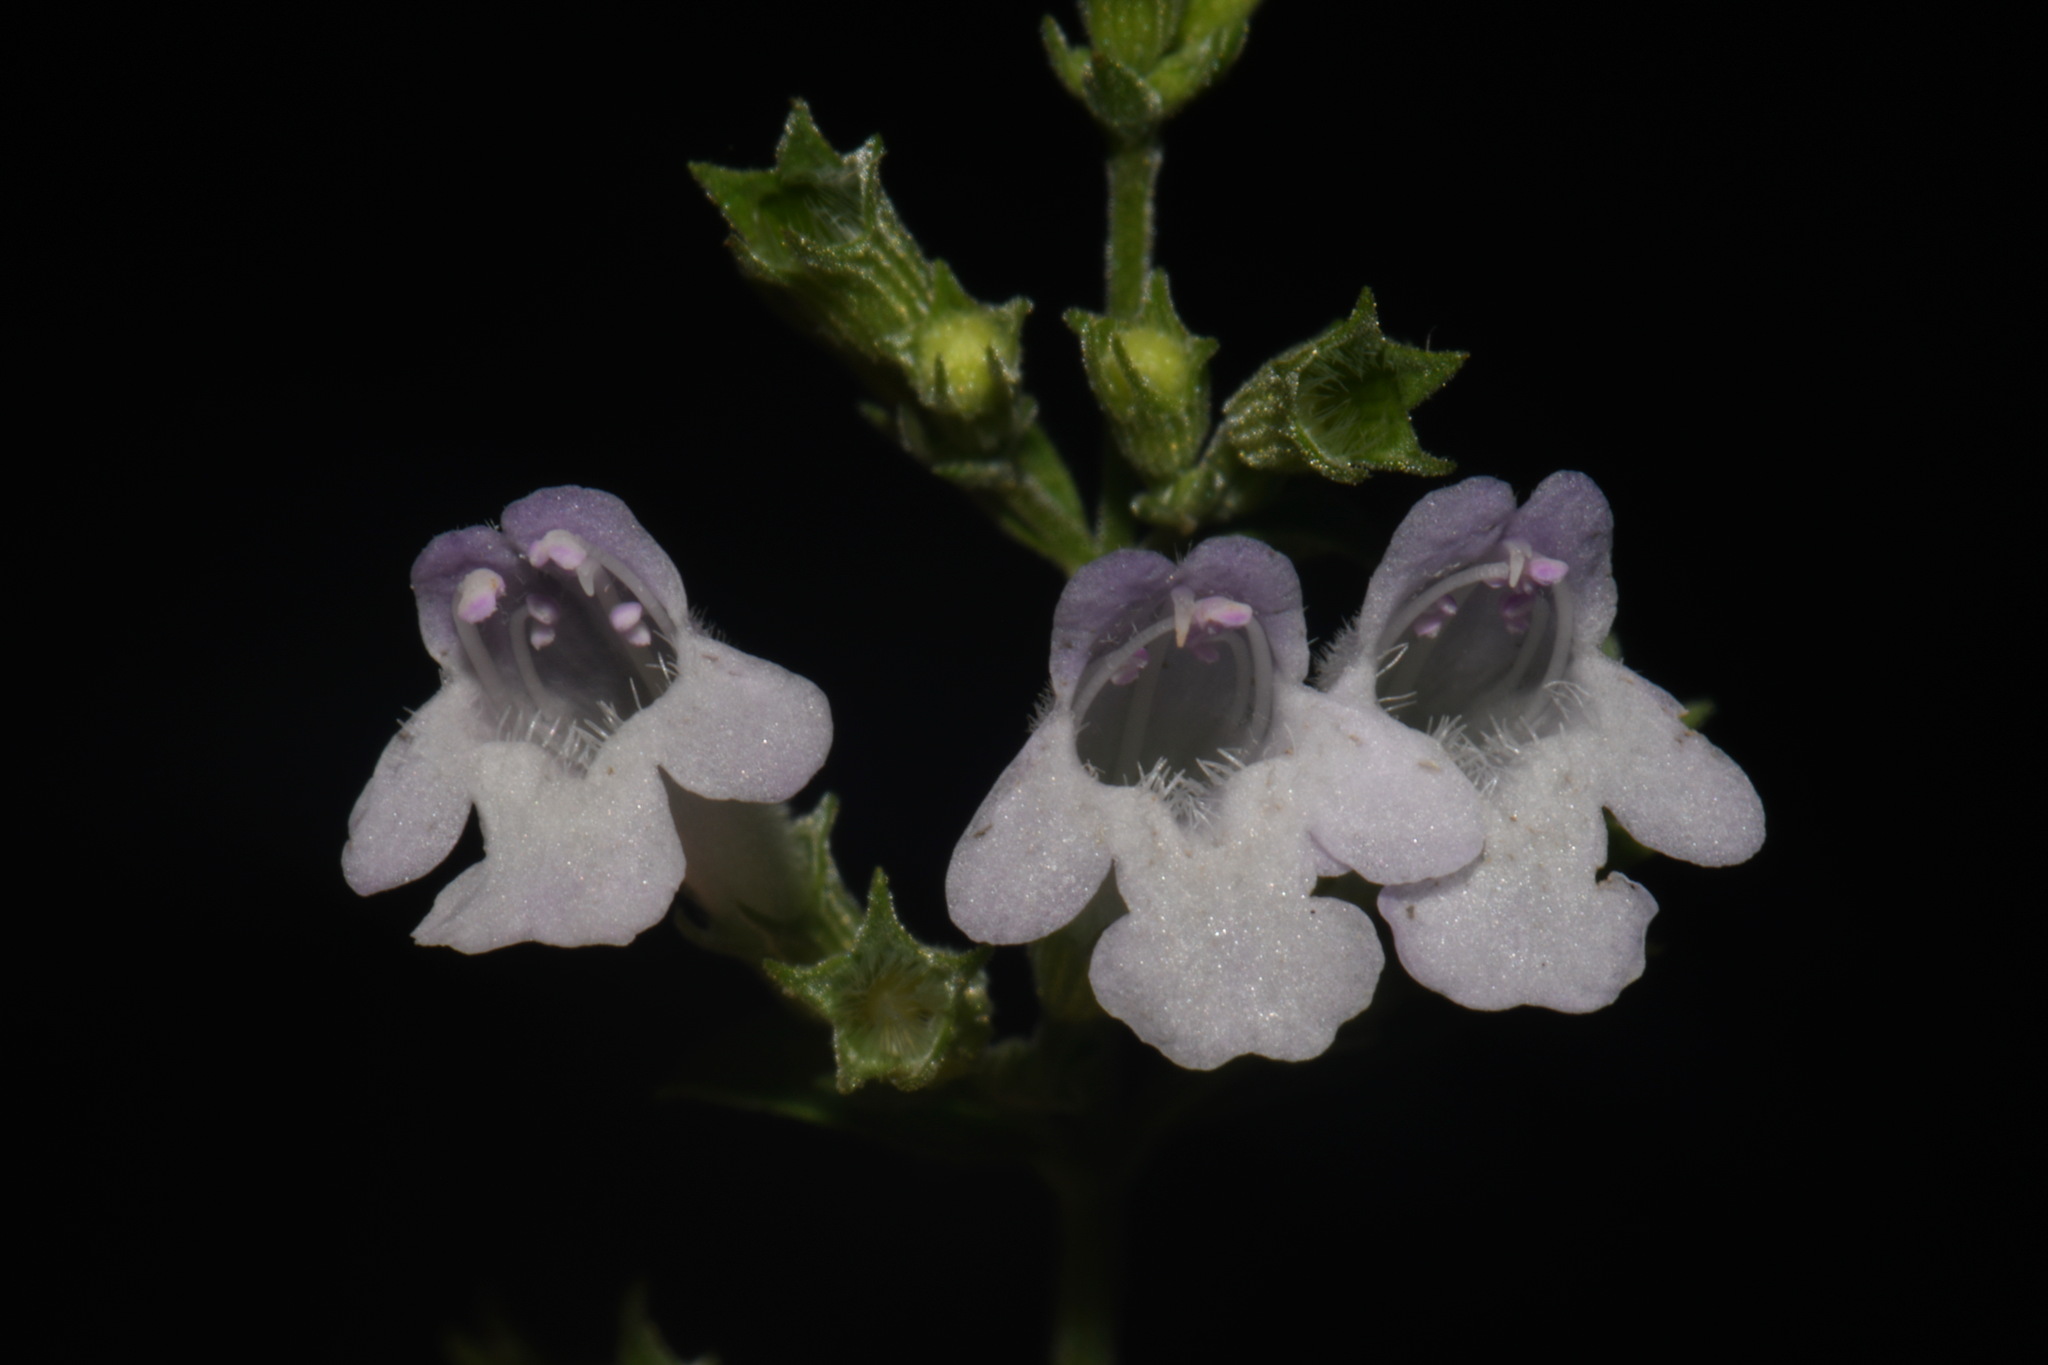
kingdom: Plantae
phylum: Tracheophyta
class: Magnoliopsida
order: Lamiales
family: Lamiaceae
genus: Clinopodium
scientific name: Clinopodium menthifolium
